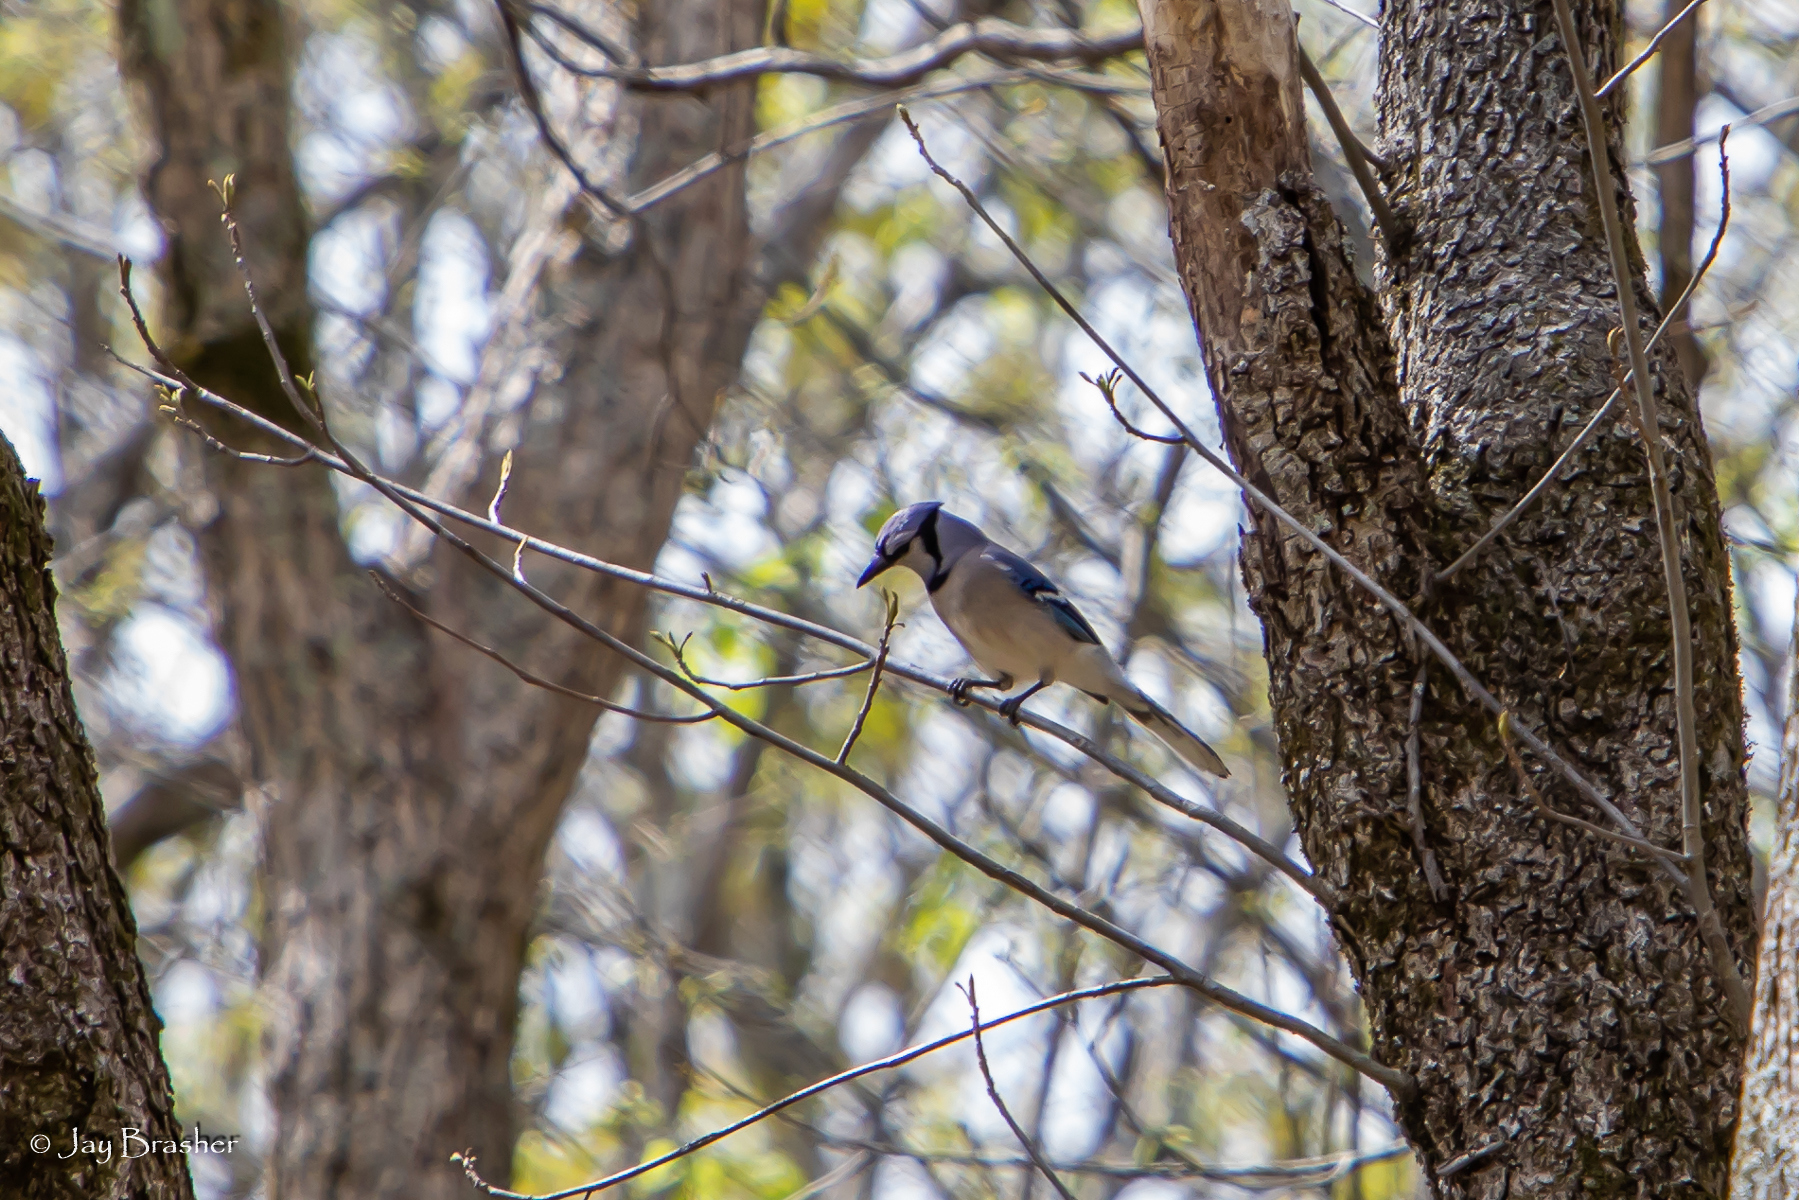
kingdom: Animalia
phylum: Chordata
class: Aves
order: Passeriformes
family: Corvidae
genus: Cyanocitta
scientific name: Cyanocitta cristata
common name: Blue jay
